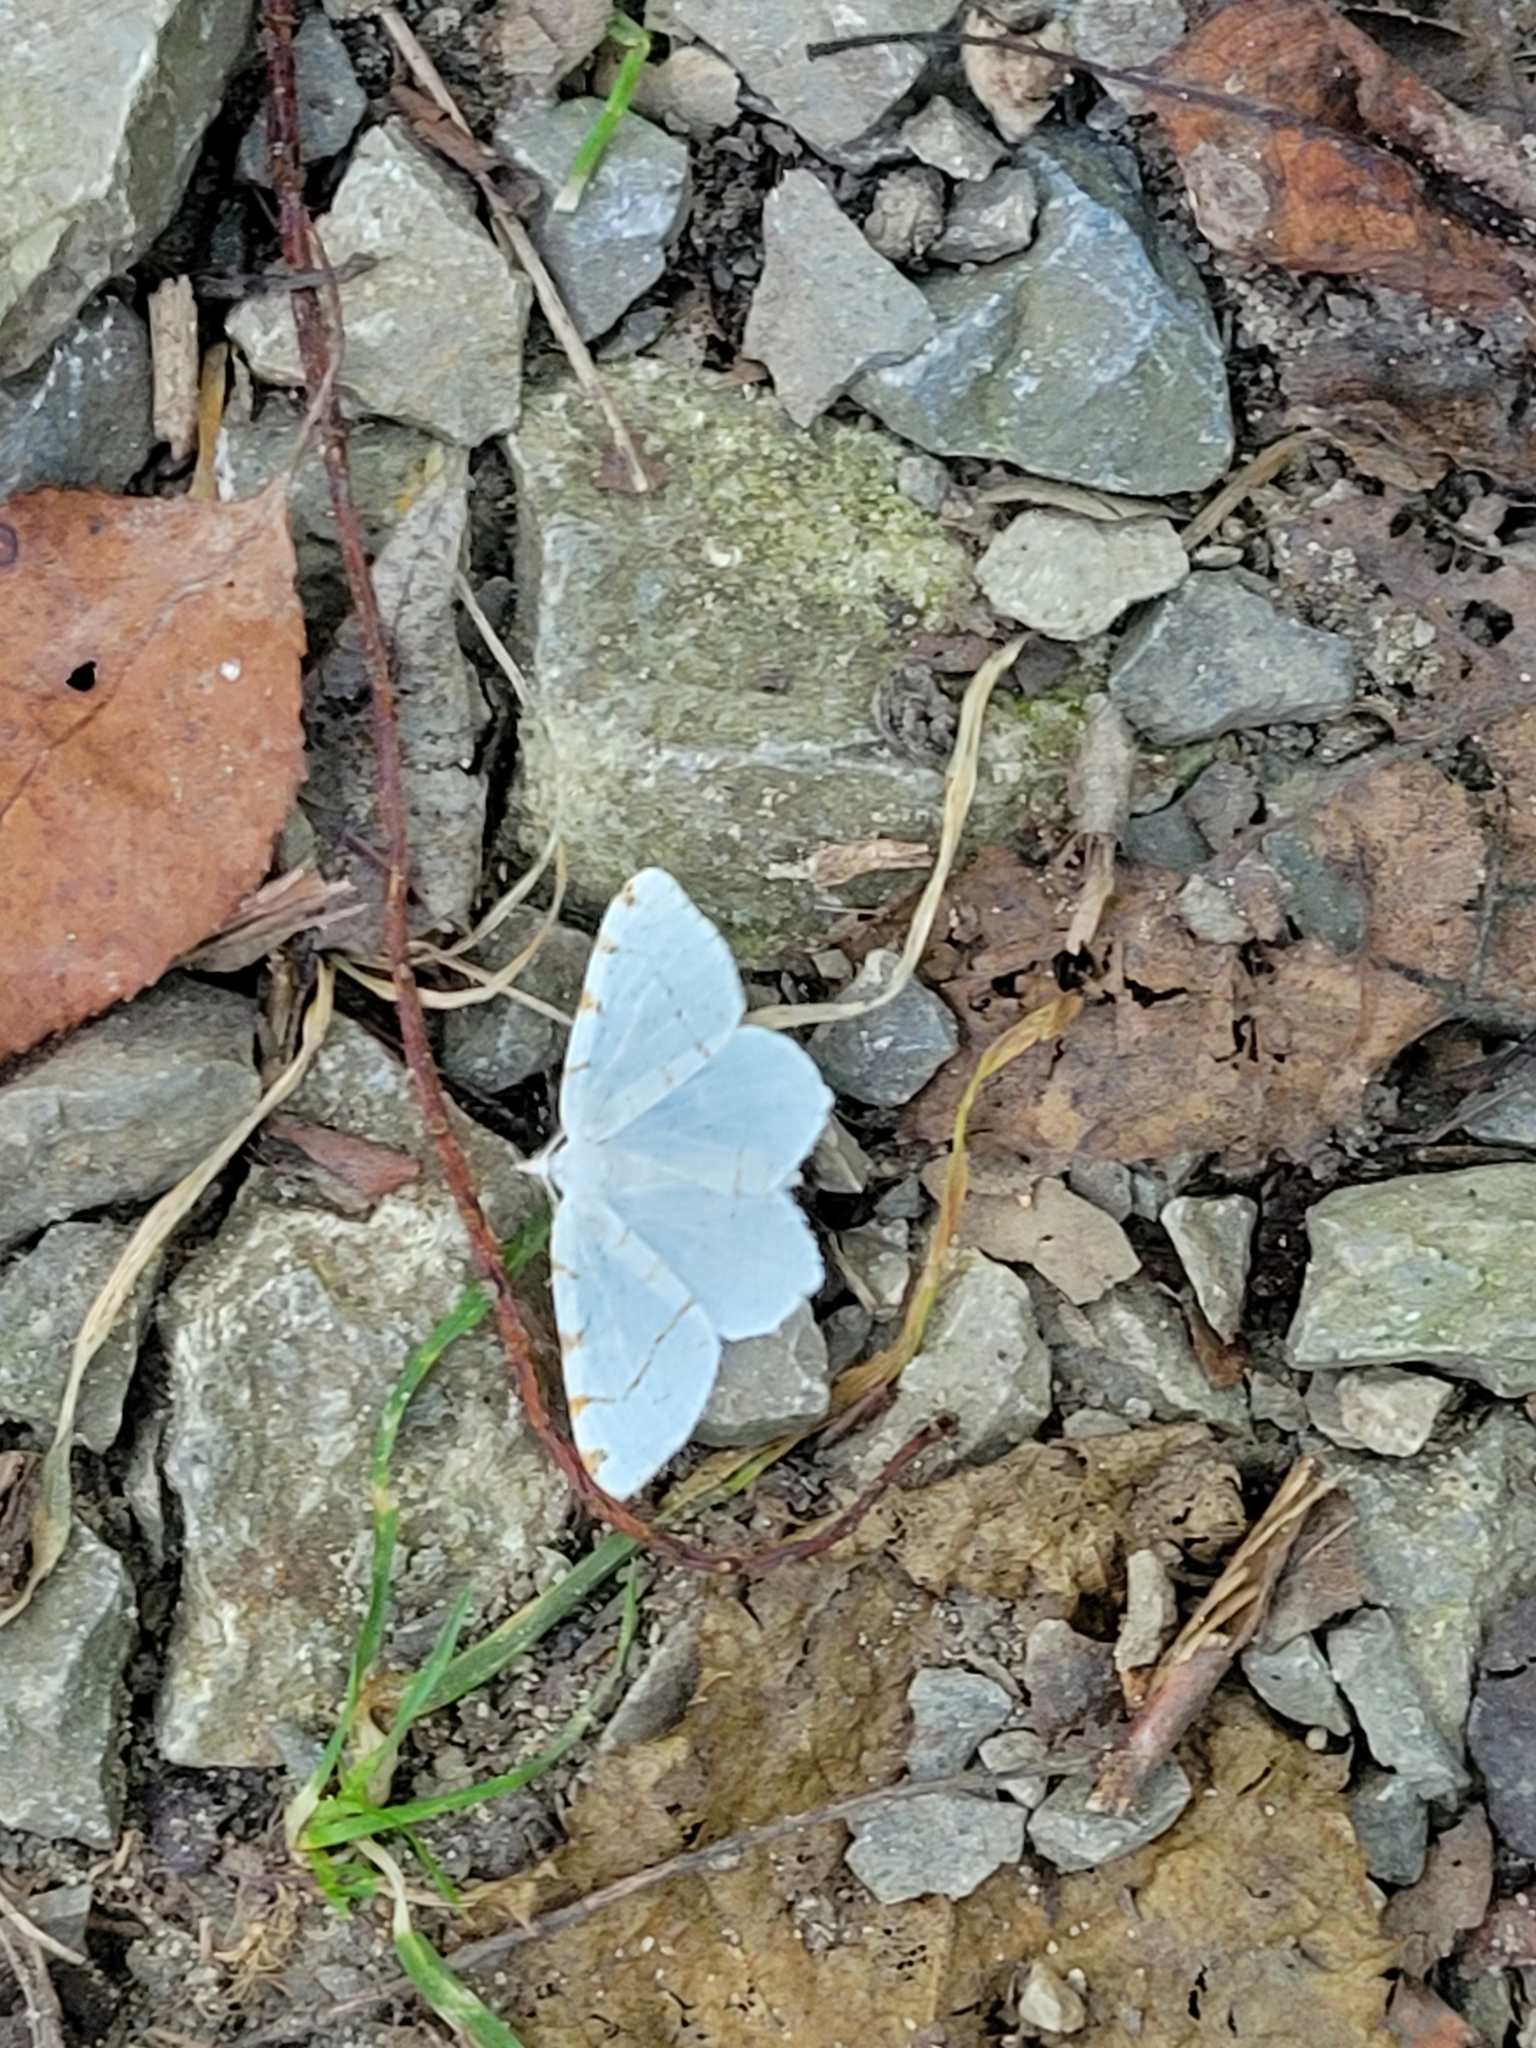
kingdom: Animalia
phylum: Arthropoda
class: Insecta
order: Lepidoptera
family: Geometridae
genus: Macaria
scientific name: Macaria pustularia
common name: Lesser maple spanworm moth
